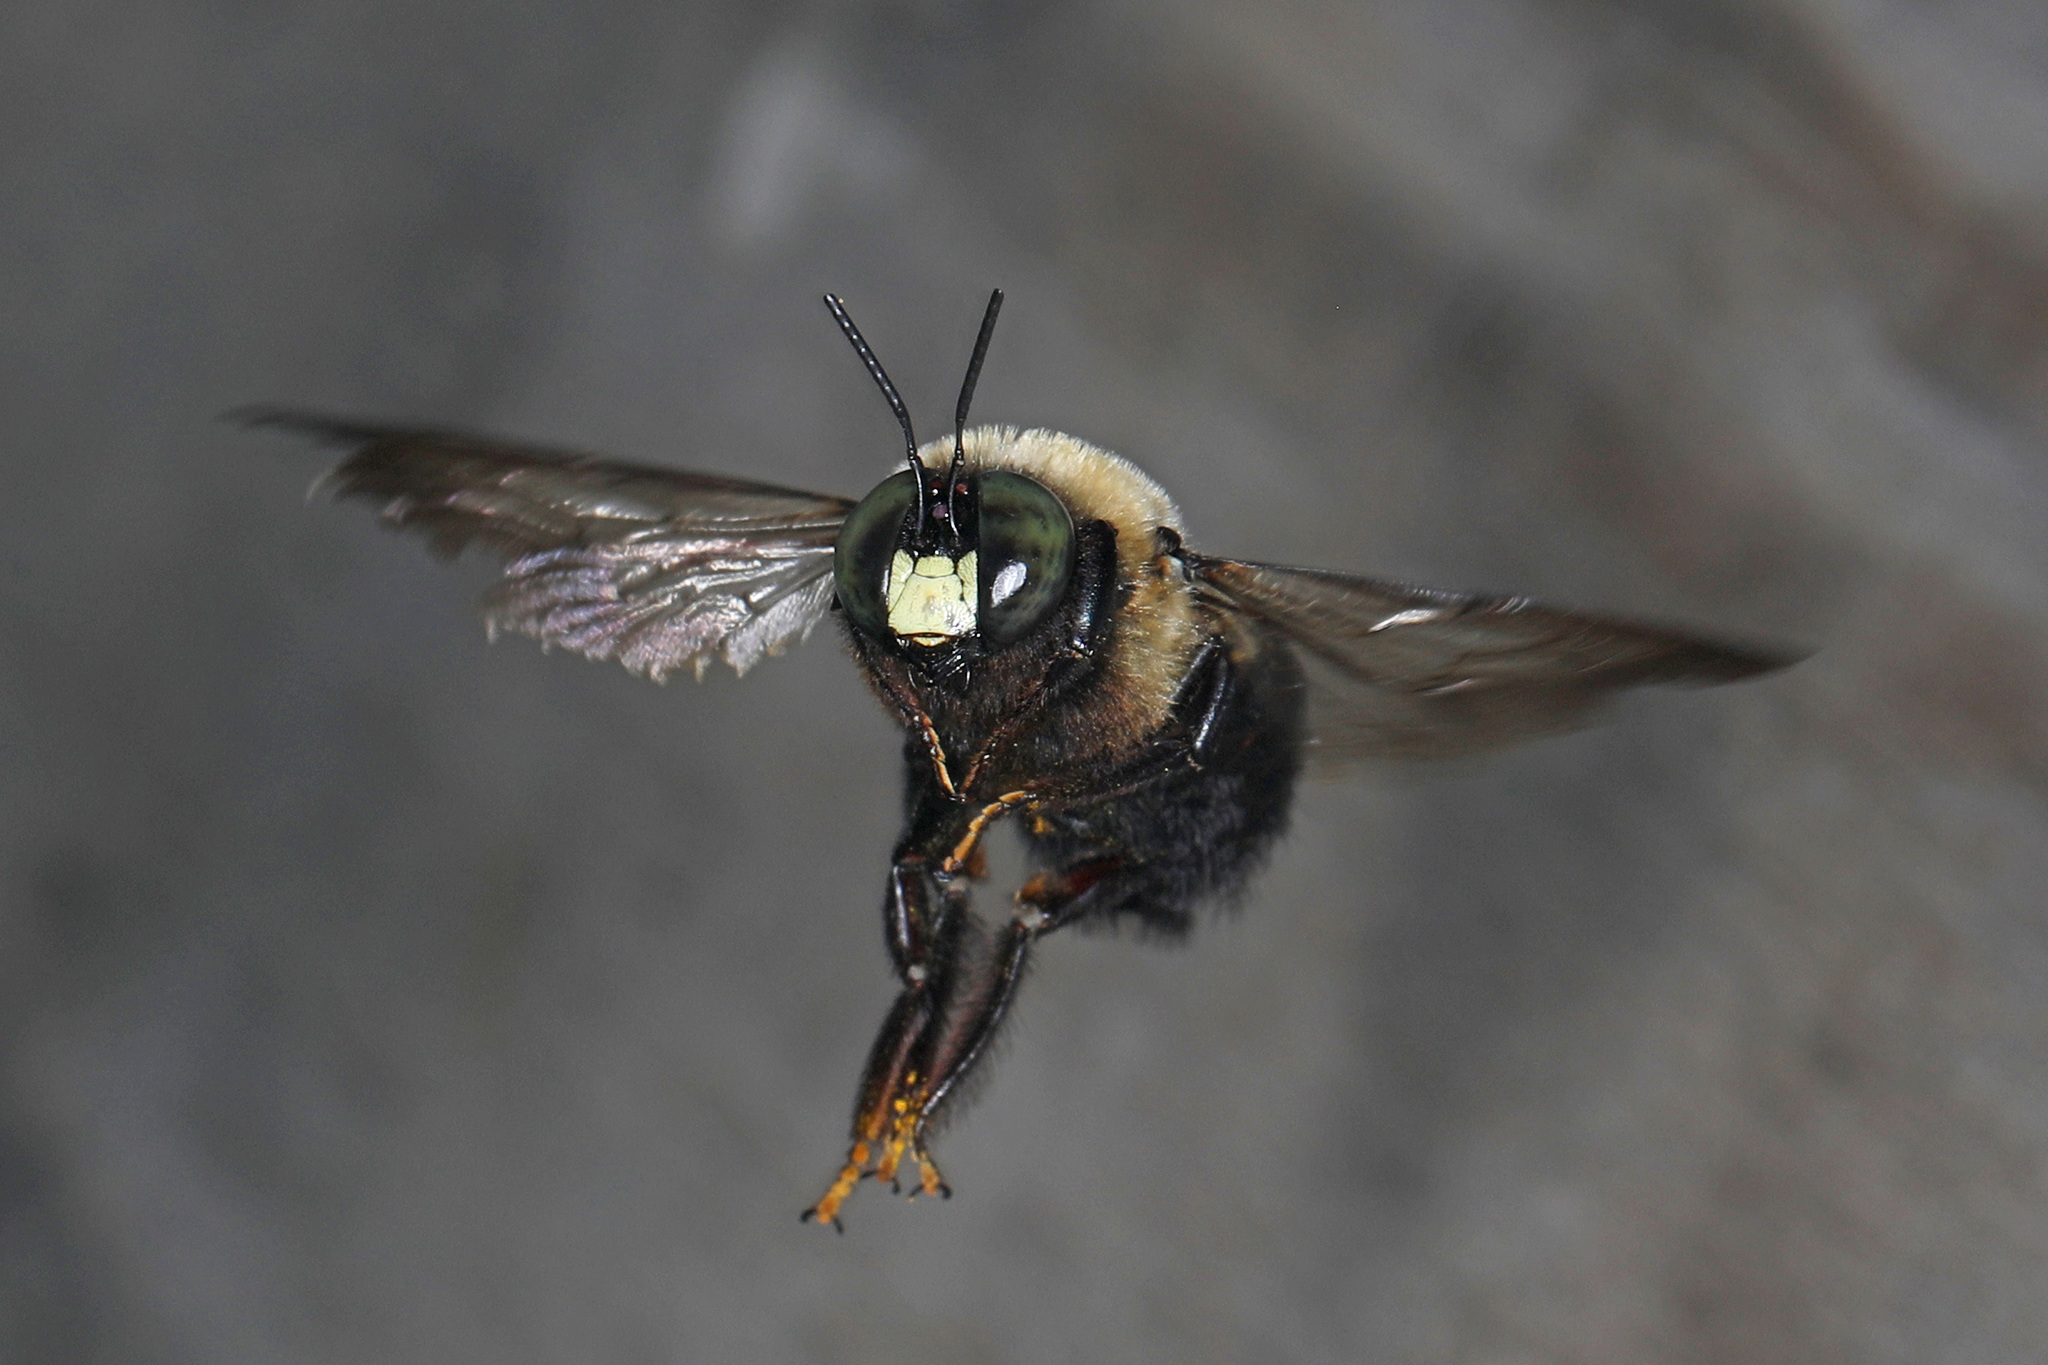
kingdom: Animalia
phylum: Arthropoda
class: Insecta
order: Hymenoptera
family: Apidae
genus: Xylocopa
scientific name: Xylocopa virginica
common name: Carpenter bee
